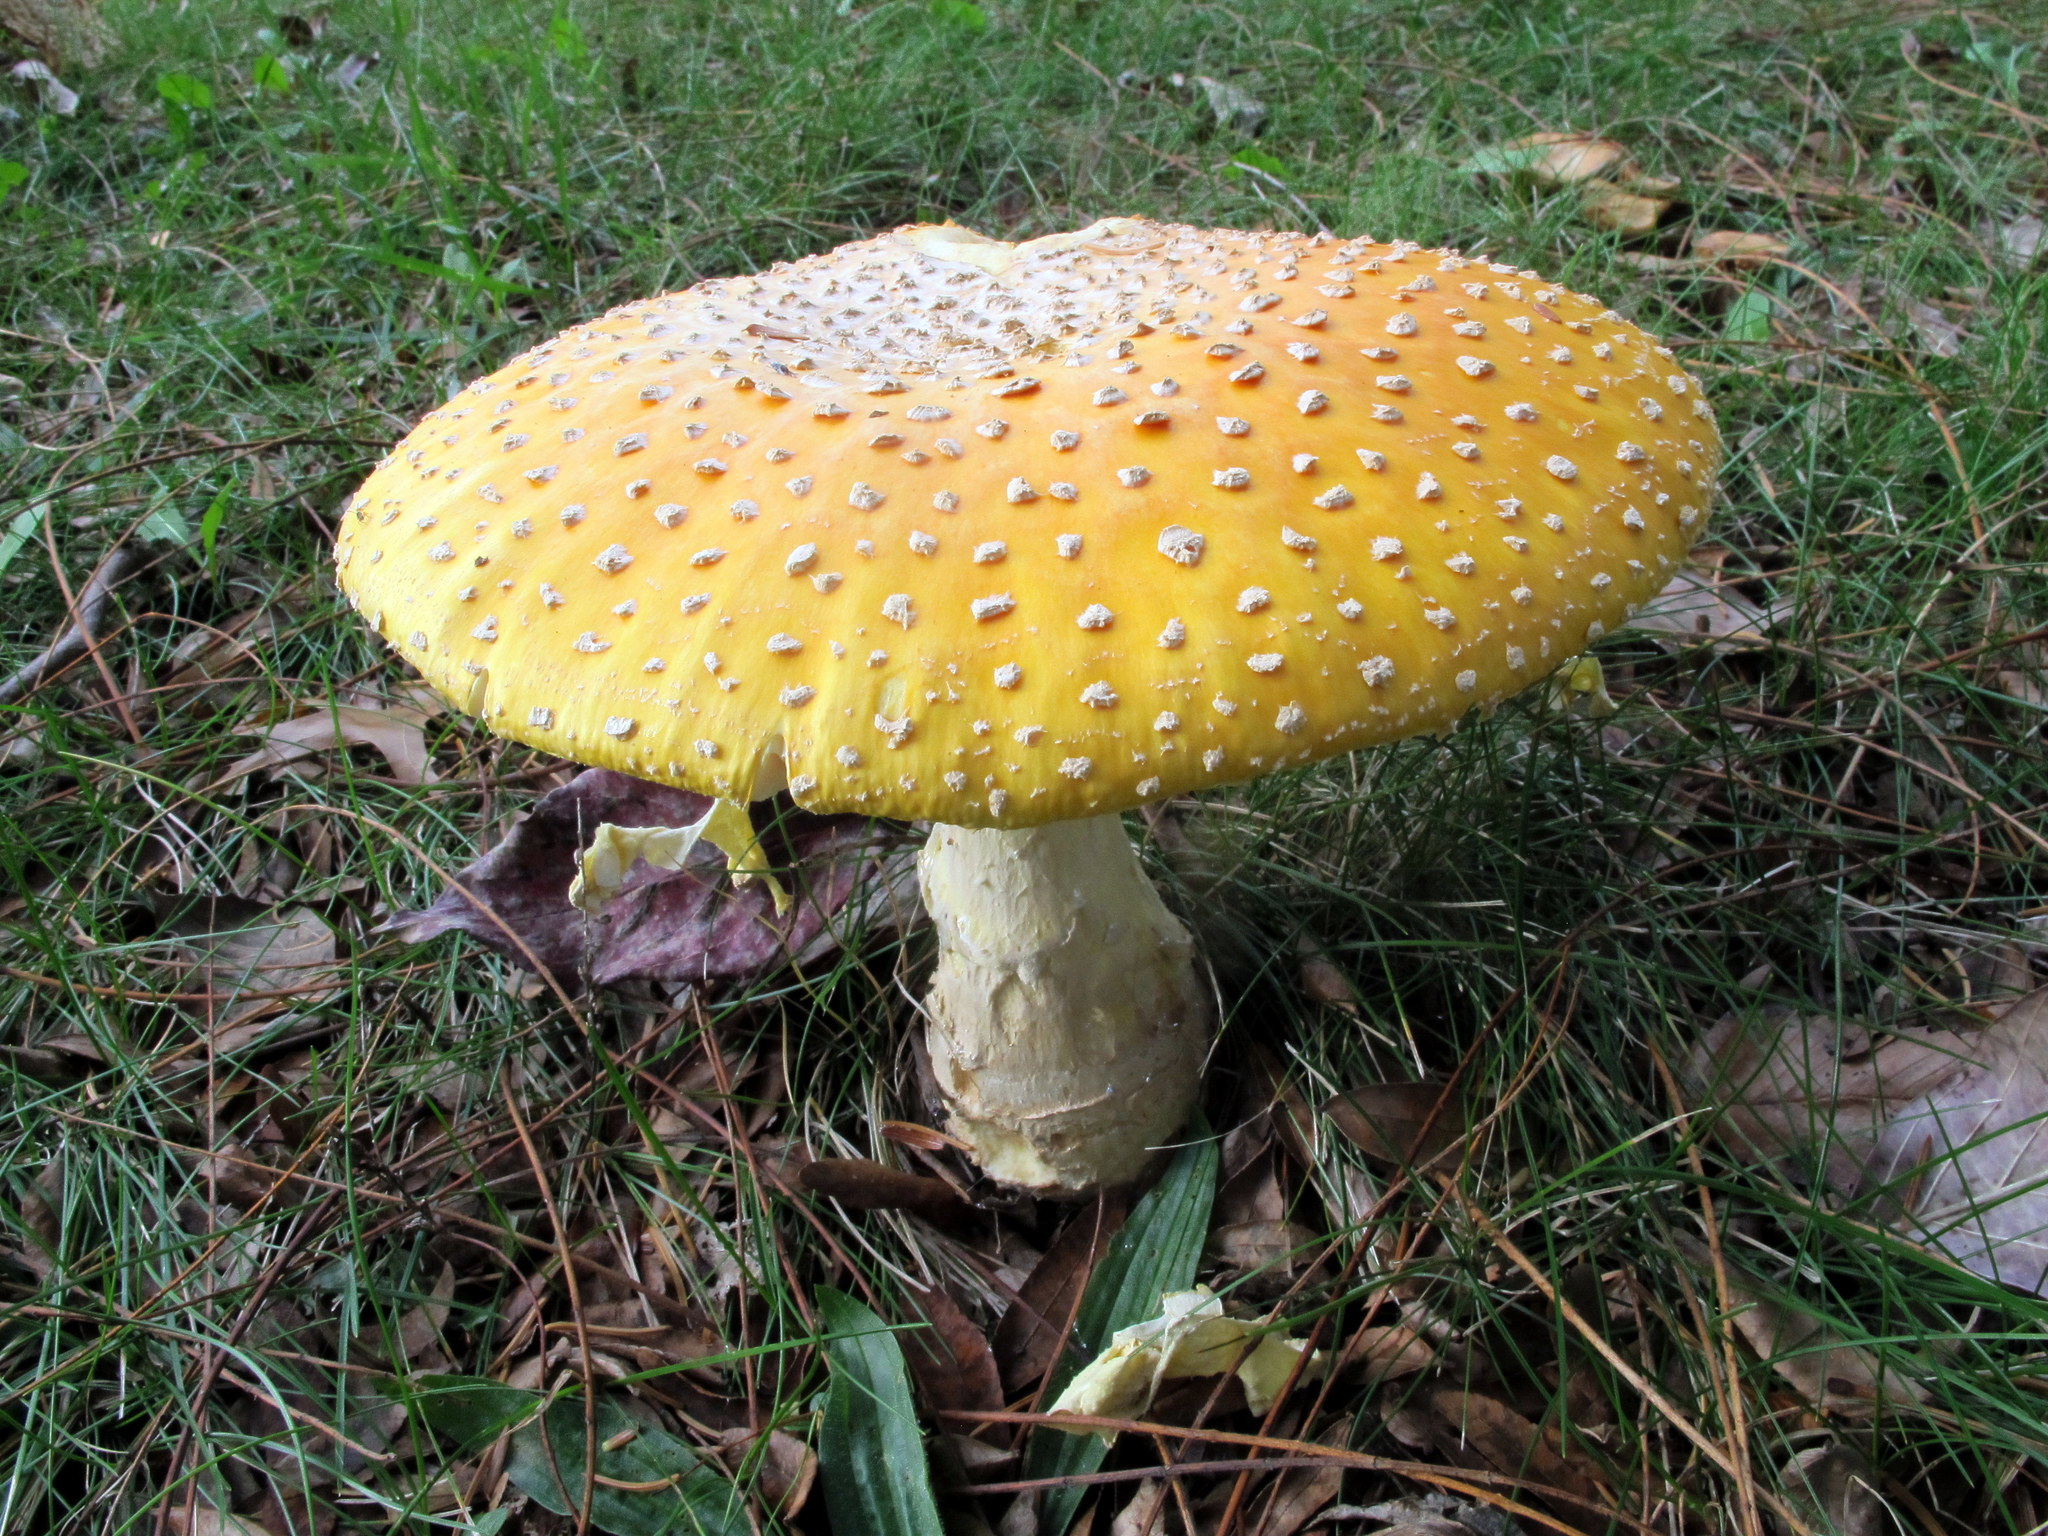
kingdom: Fungi
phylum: Basidiomycota
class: Agaricomycetes
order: Agaricales
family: Amanitaceae
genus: Amanita
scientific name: Amanita muscaria
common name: Fly agaric
